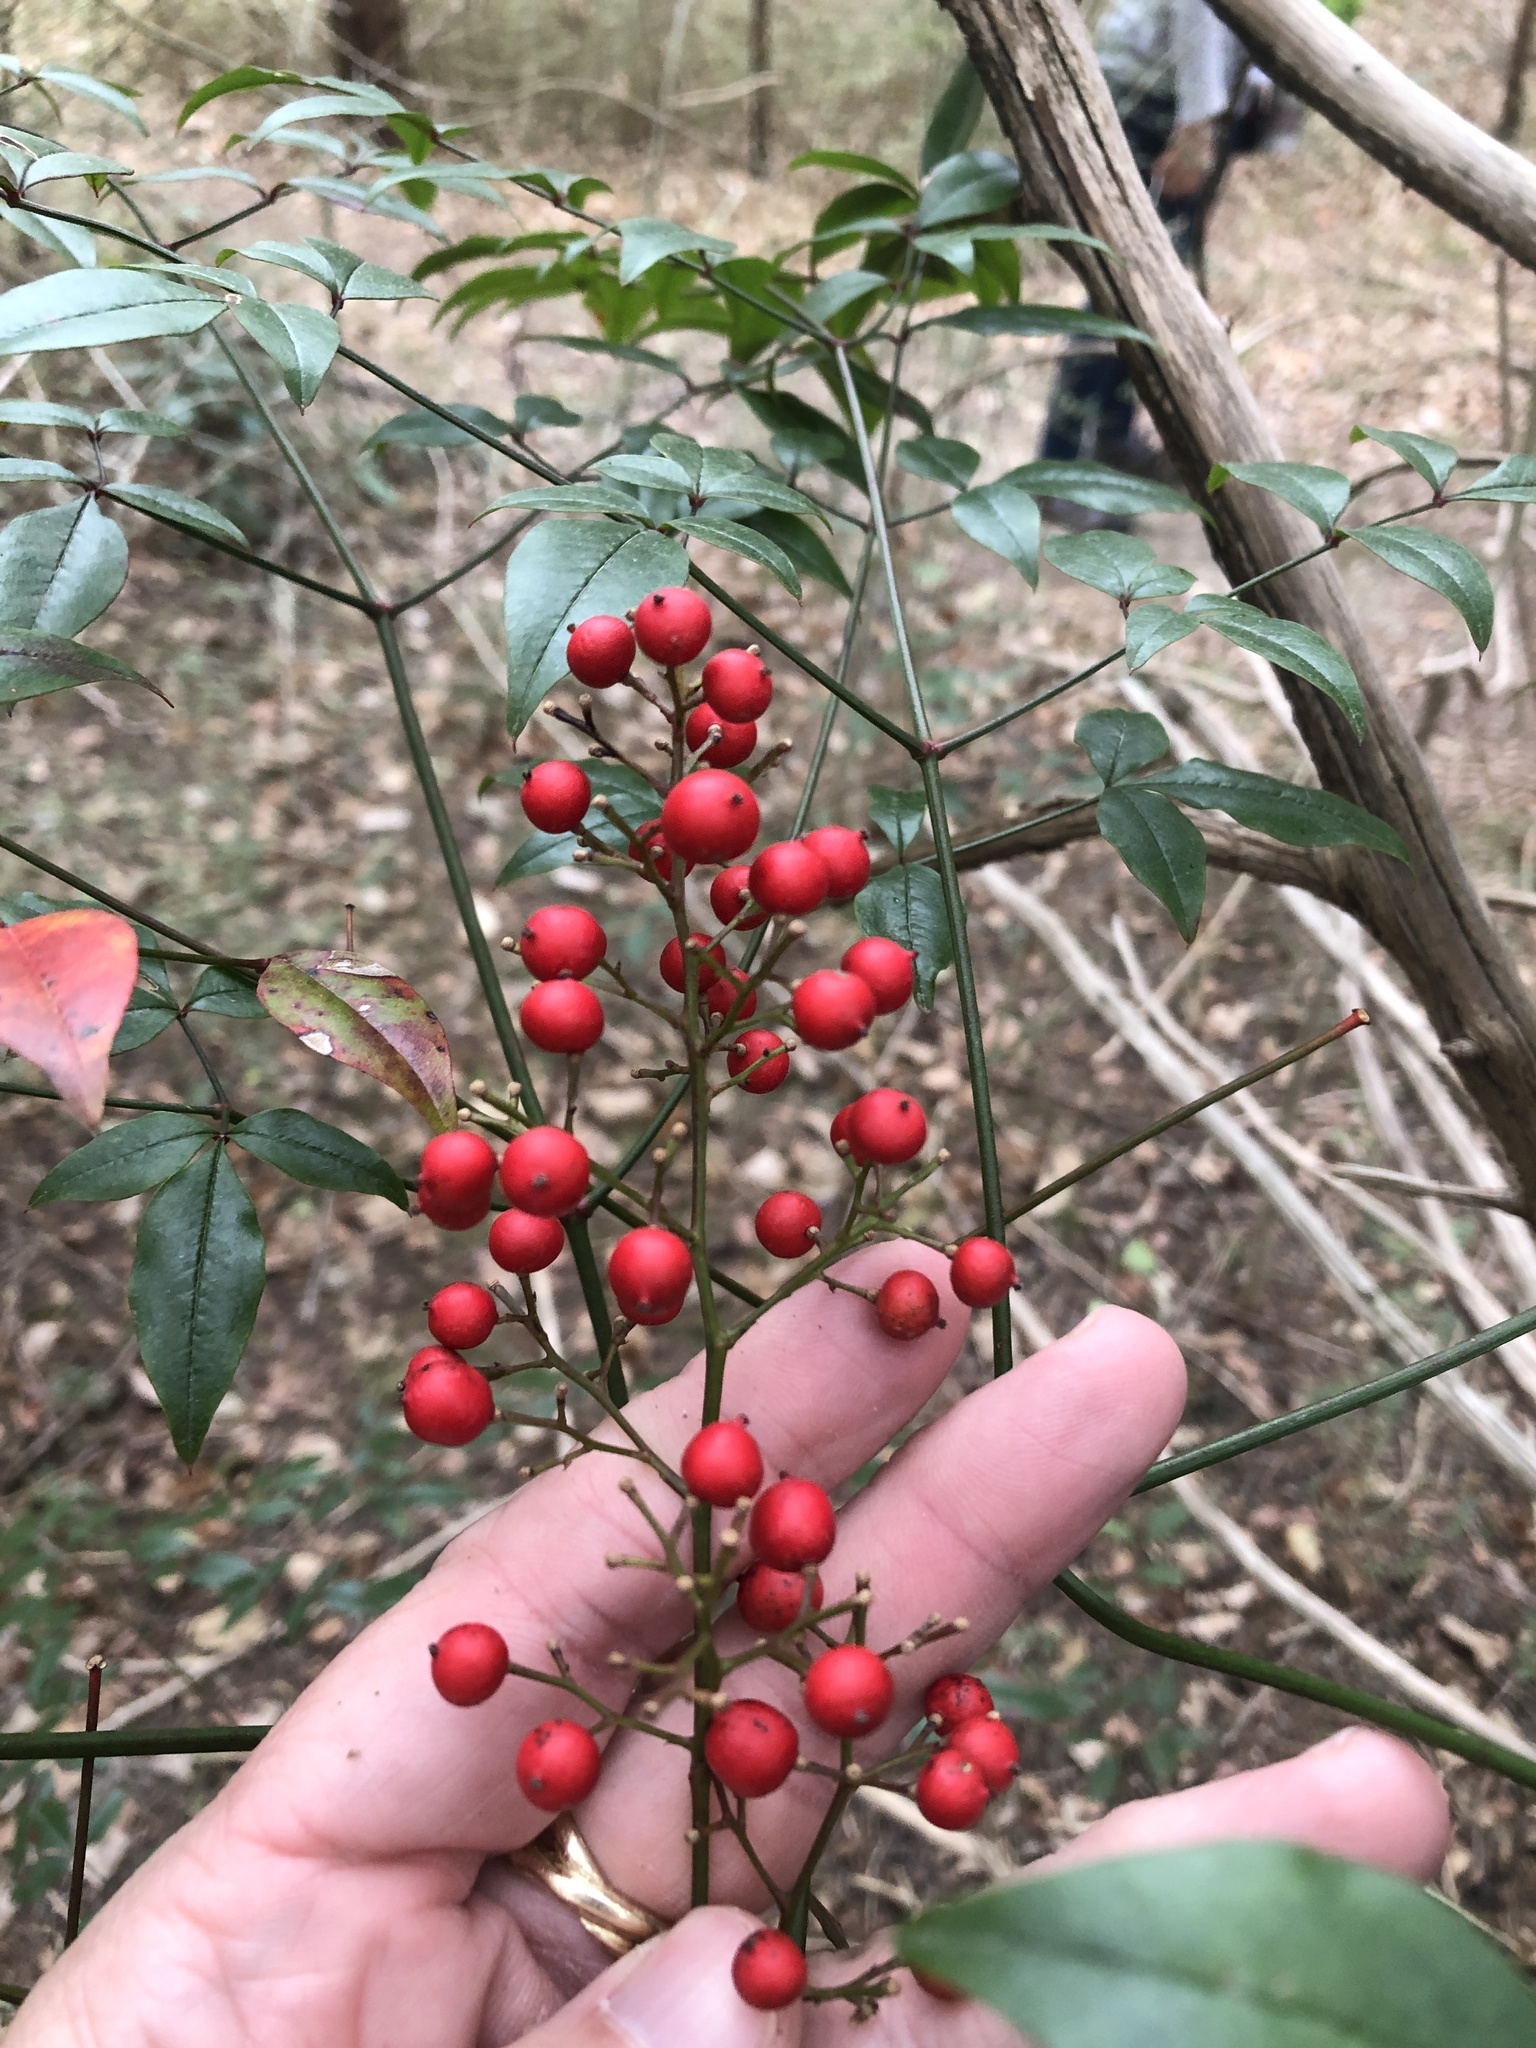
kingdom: Plantae
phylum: Tracheophyta
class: Magnoliopsida
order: Ranunculales
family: Berberidaceae
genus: Nandina
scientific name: Nandina domestica
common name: Sacred bamboo
